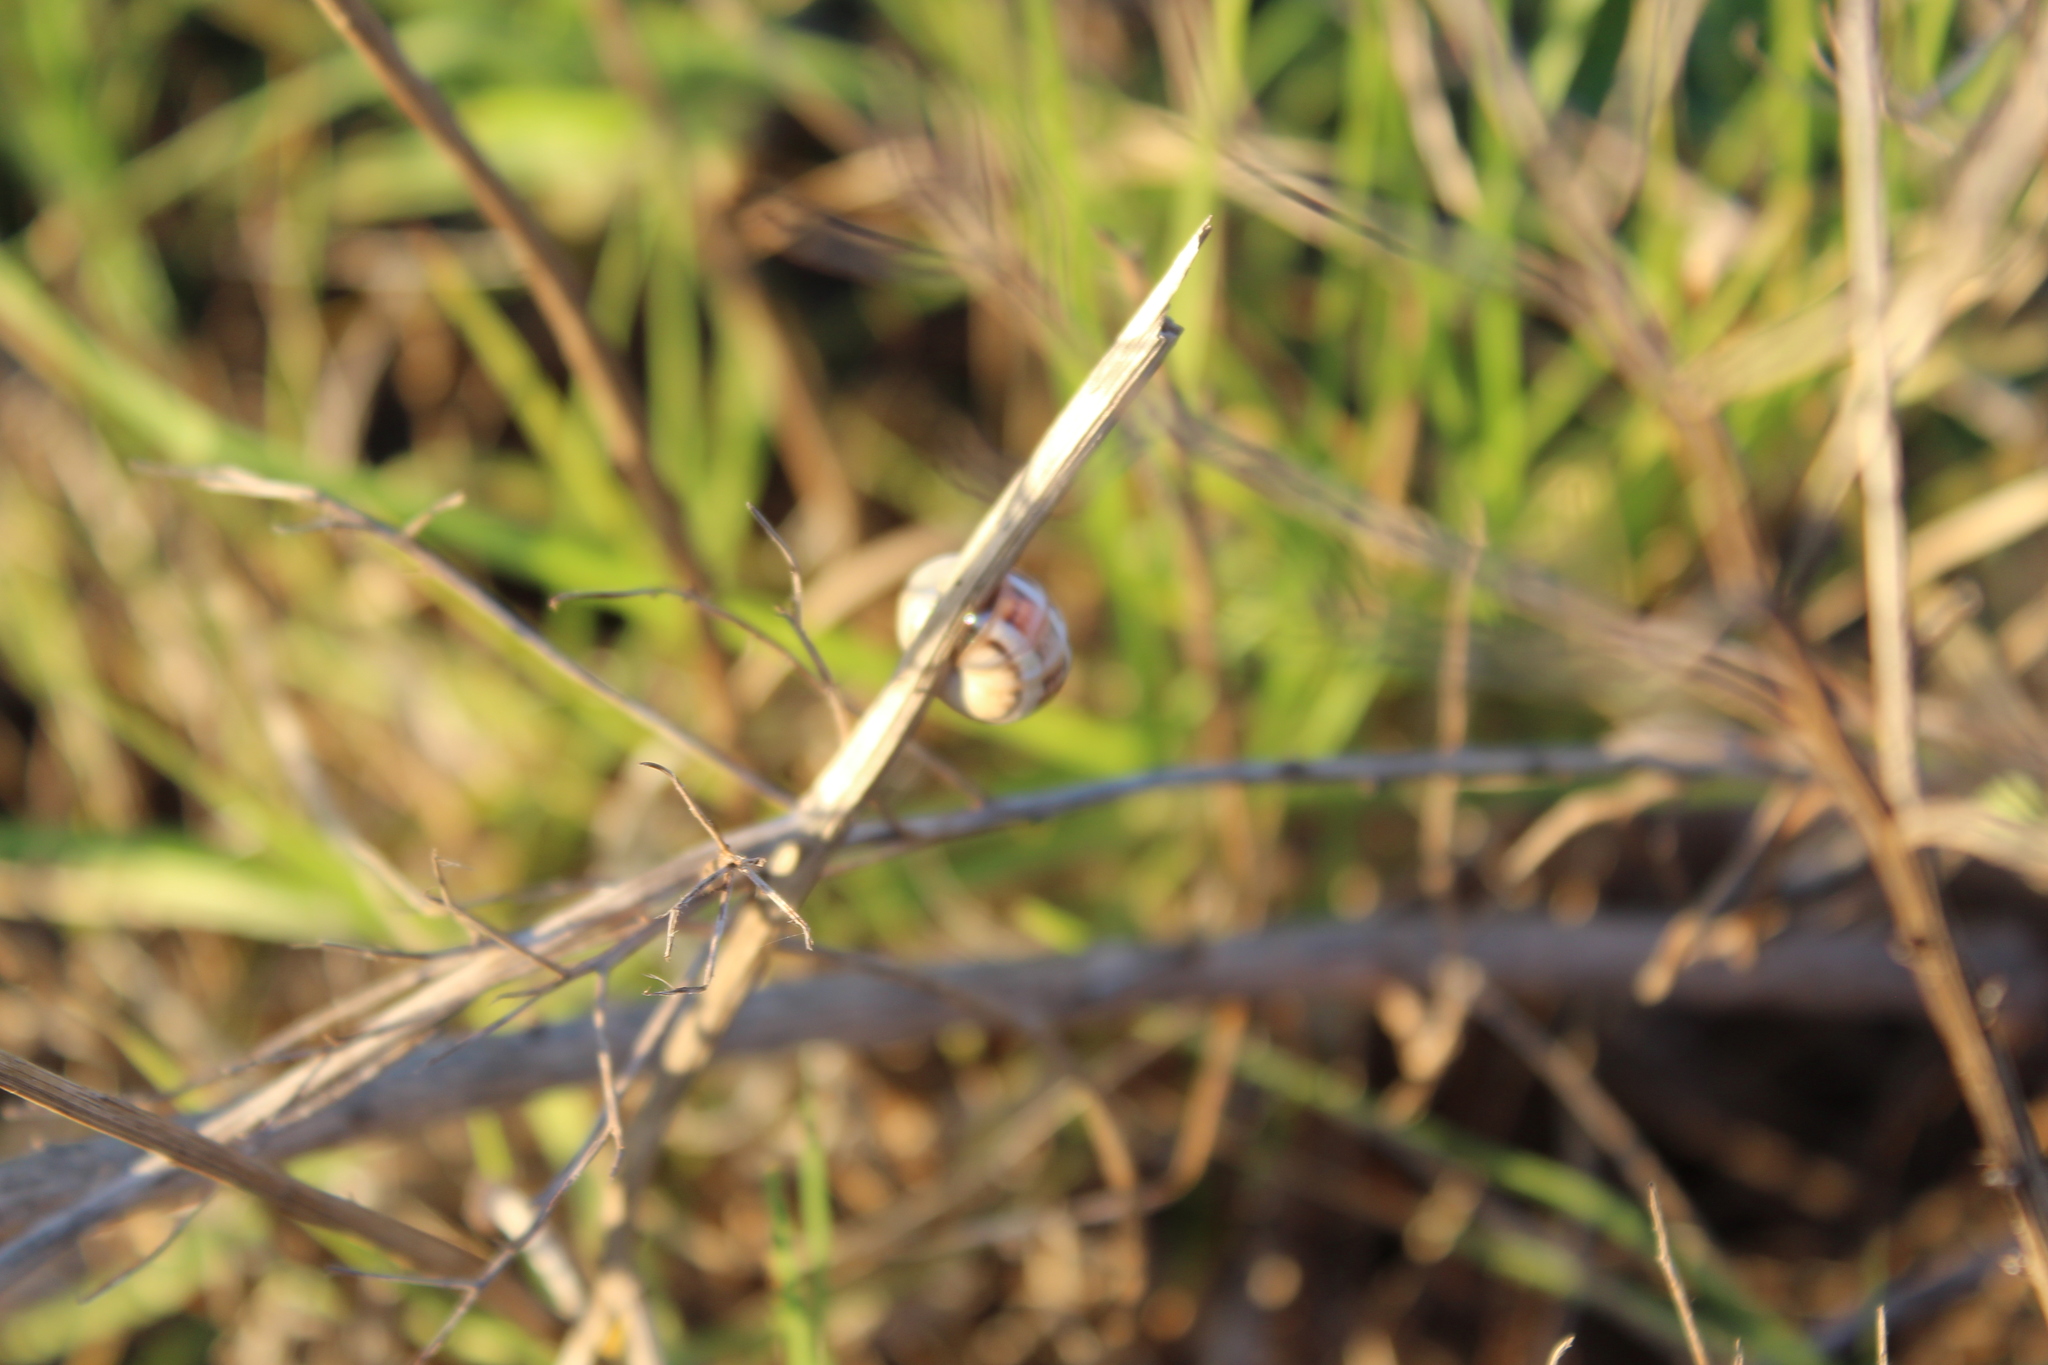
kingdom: Animalia
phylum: Mollusca
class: Gastropoda
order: Stylommatophora
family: Helicidae
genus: Theba
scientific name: Theba pisana
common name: White snail
